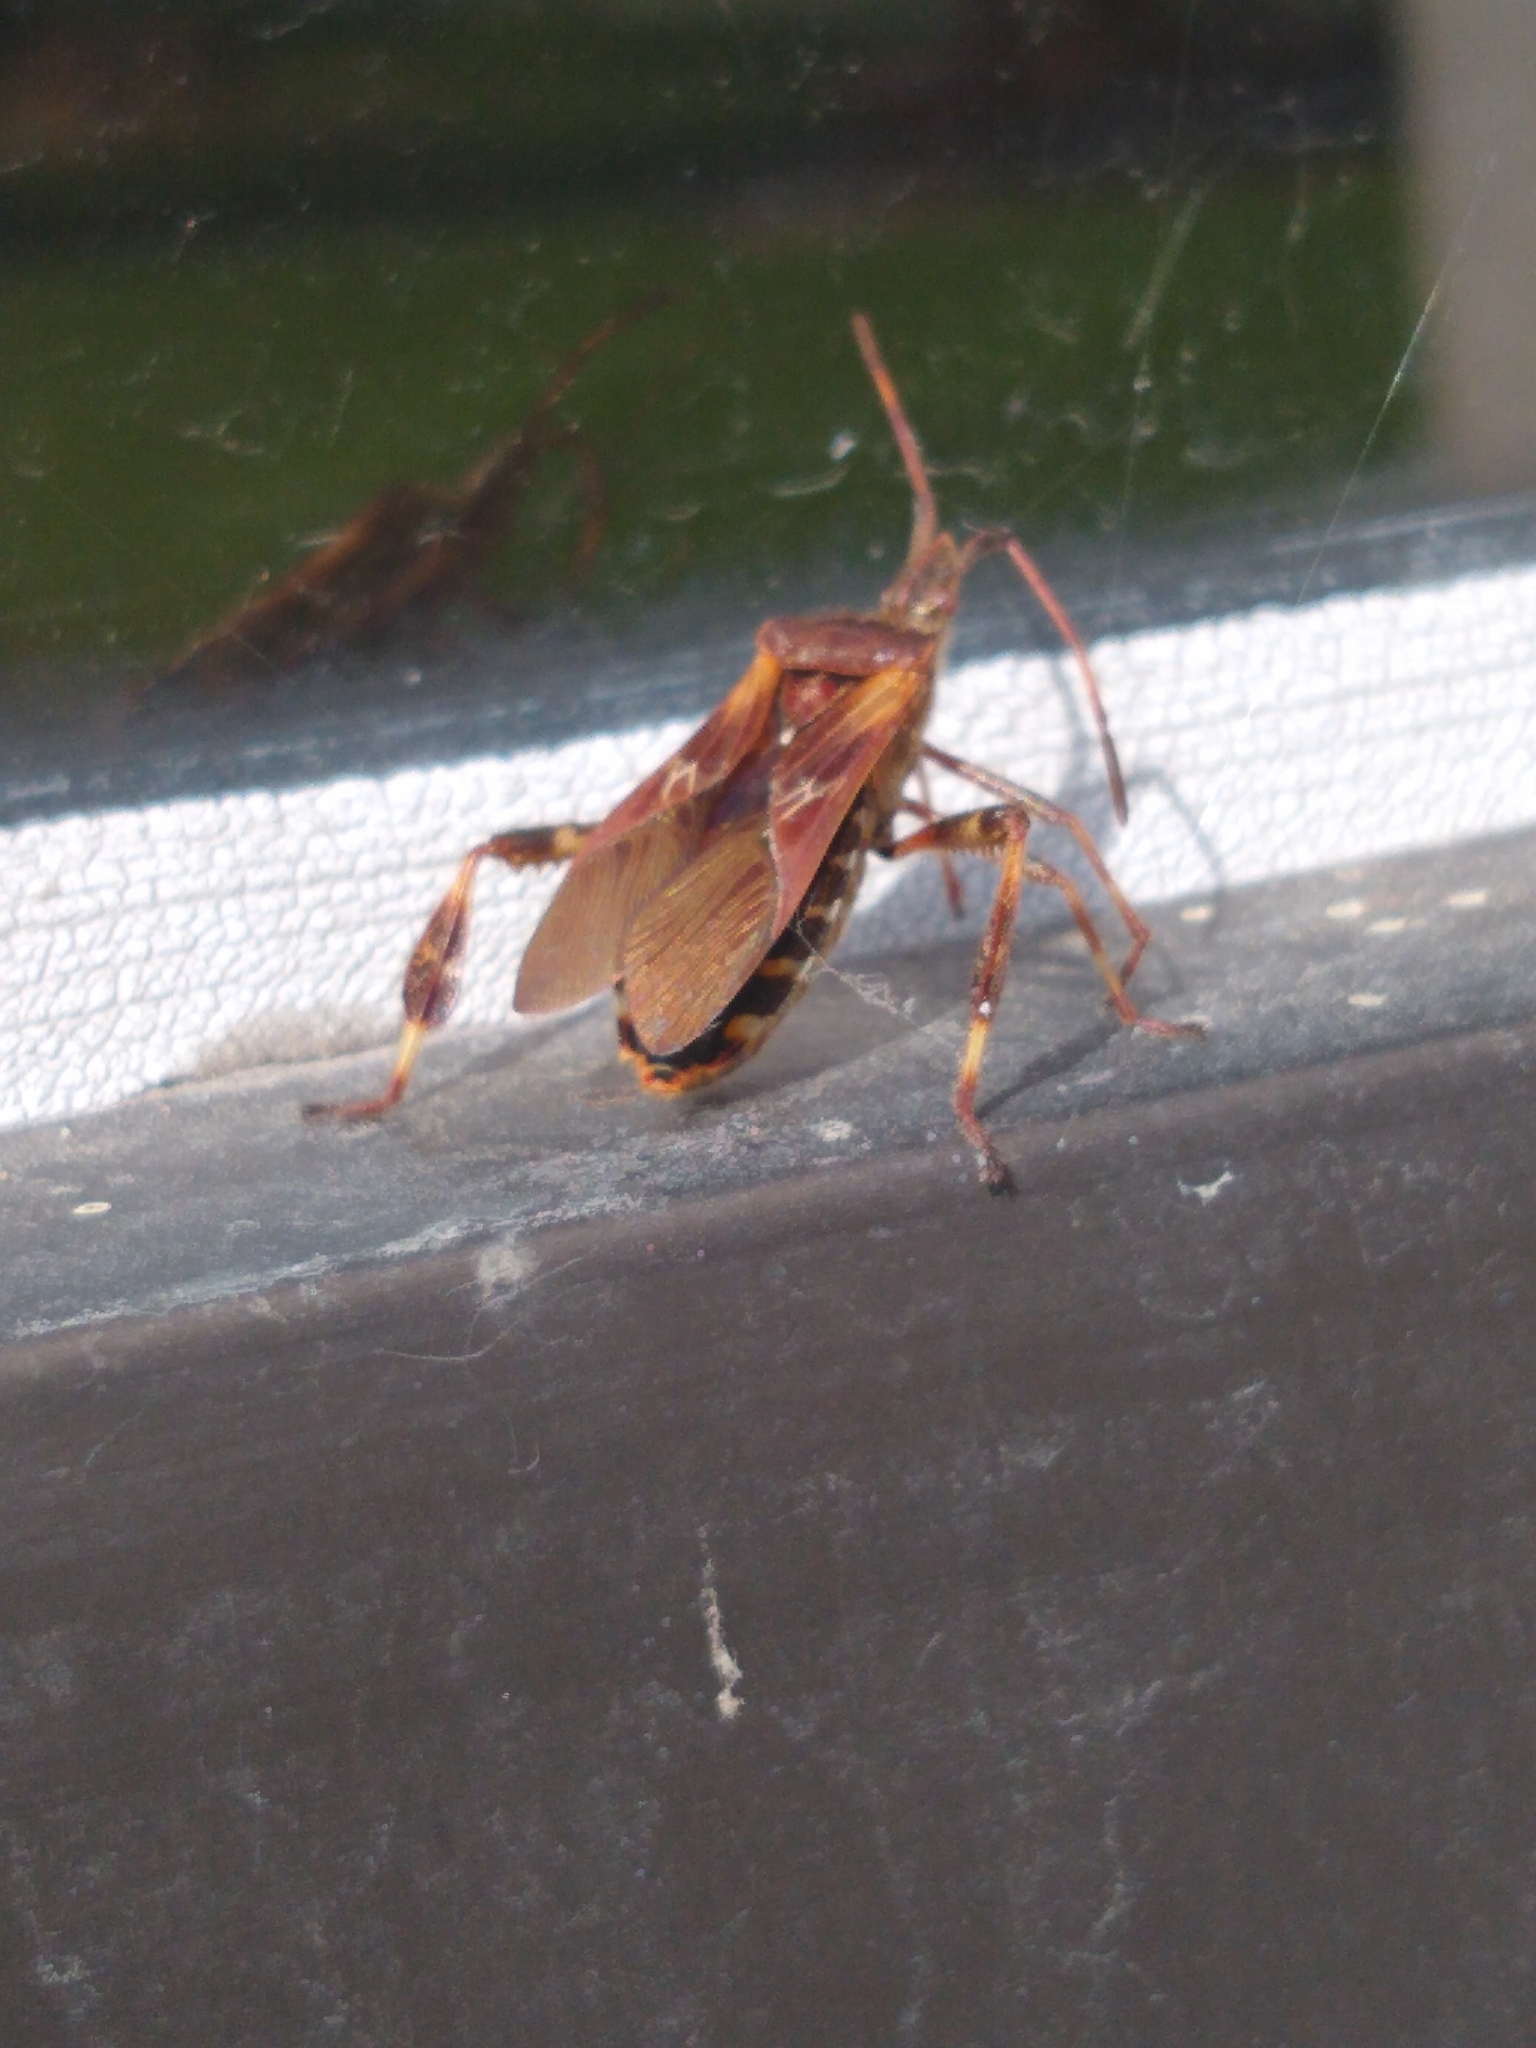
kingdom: Animalia
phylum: Arthropoda
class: Insecta
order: Hemiptera
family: Coreidae
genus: Leptoglossus
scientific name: Leptoglossus occidentalis
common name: Western conifer-seed bug
